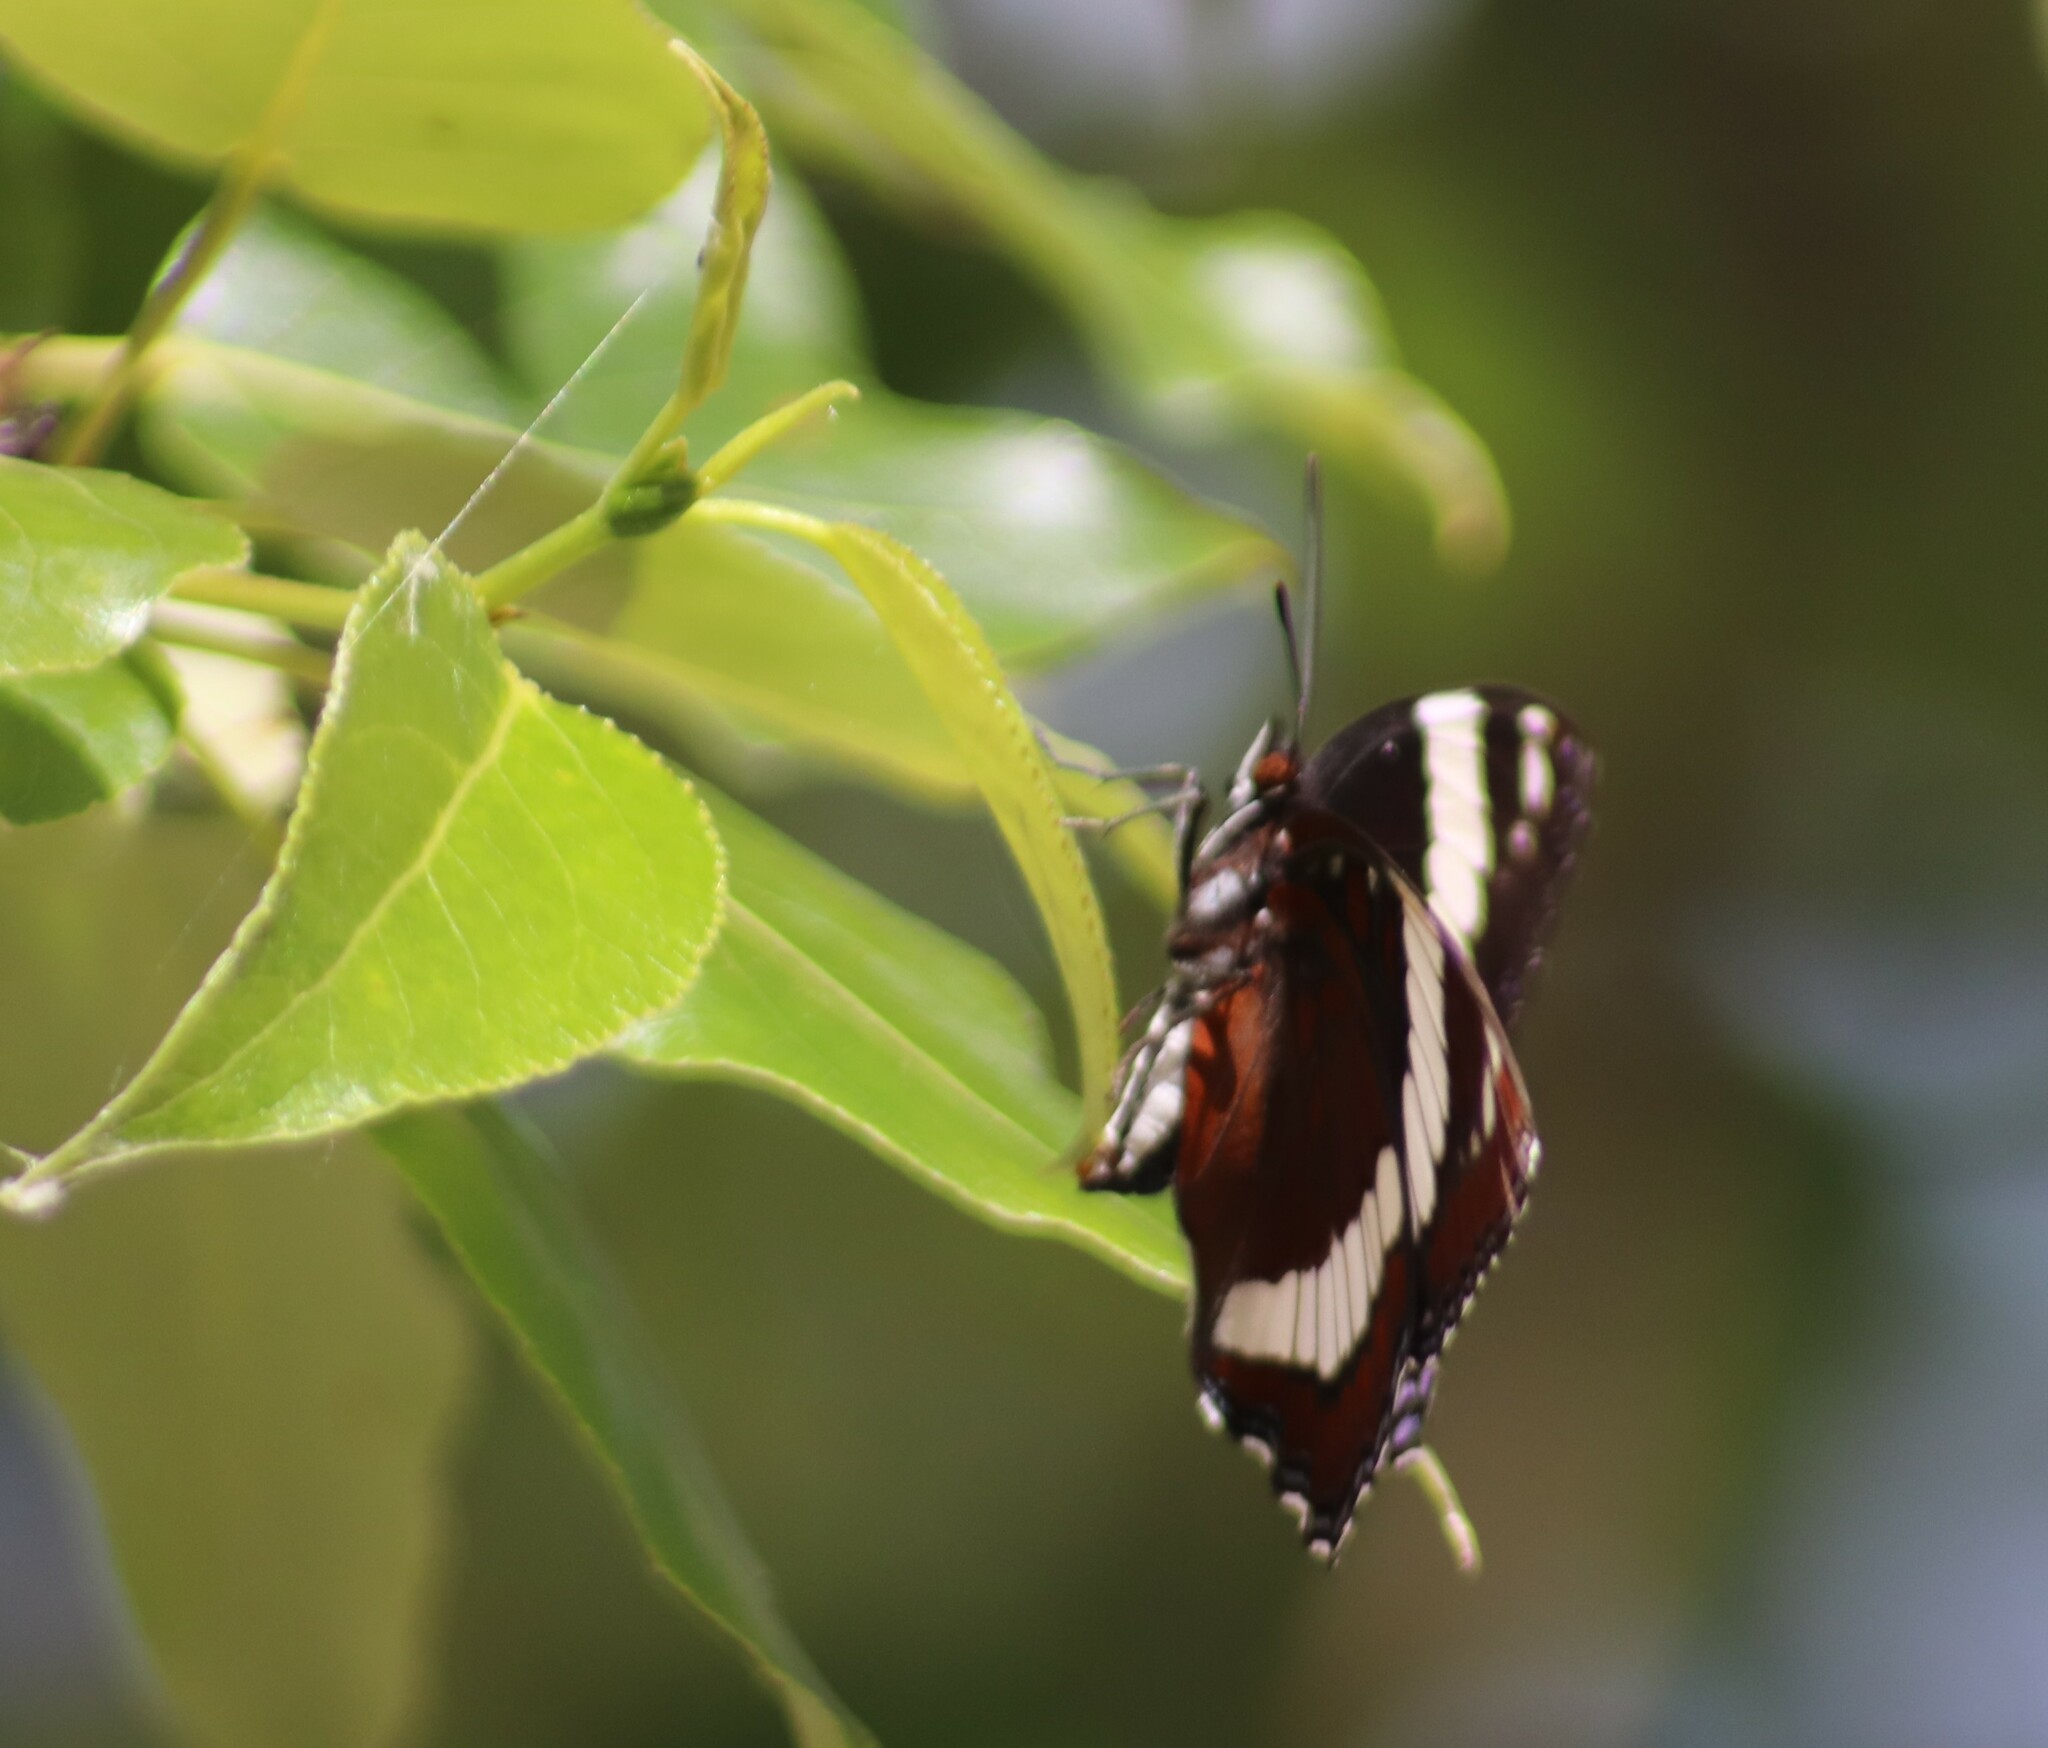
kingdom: Animalia
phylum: Arthropoda
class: Insecta
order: Lepidoptera
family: Nymphalidae
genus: Limenitis
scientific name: Limenitis arthemis
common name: Red-spotted admiral
